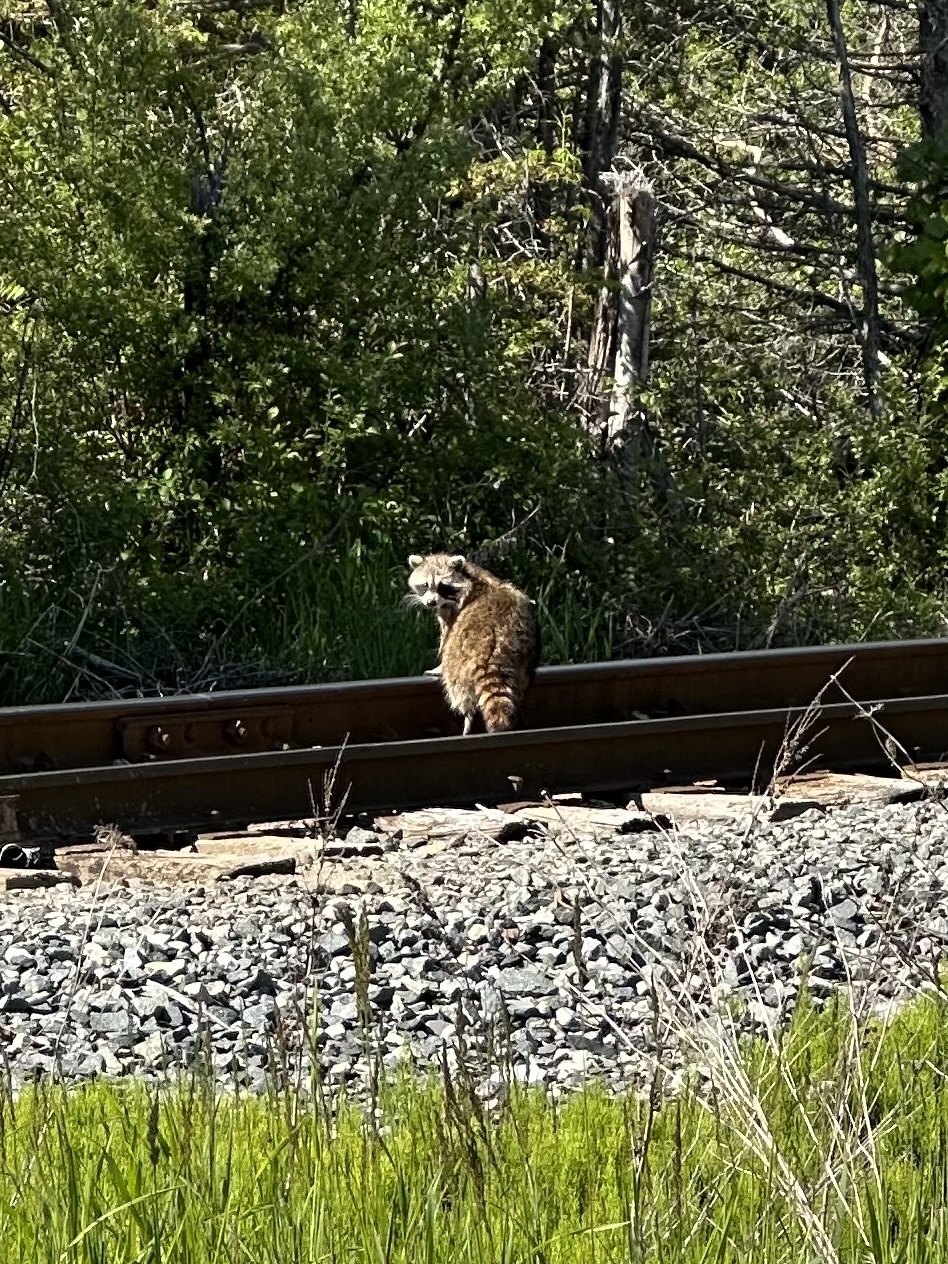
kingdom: Animalia
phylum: Chordata
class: Mammalia
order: Carnivora
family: Procyonidae
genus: Procyon
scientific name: Procyon lotor
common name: Raccoon
